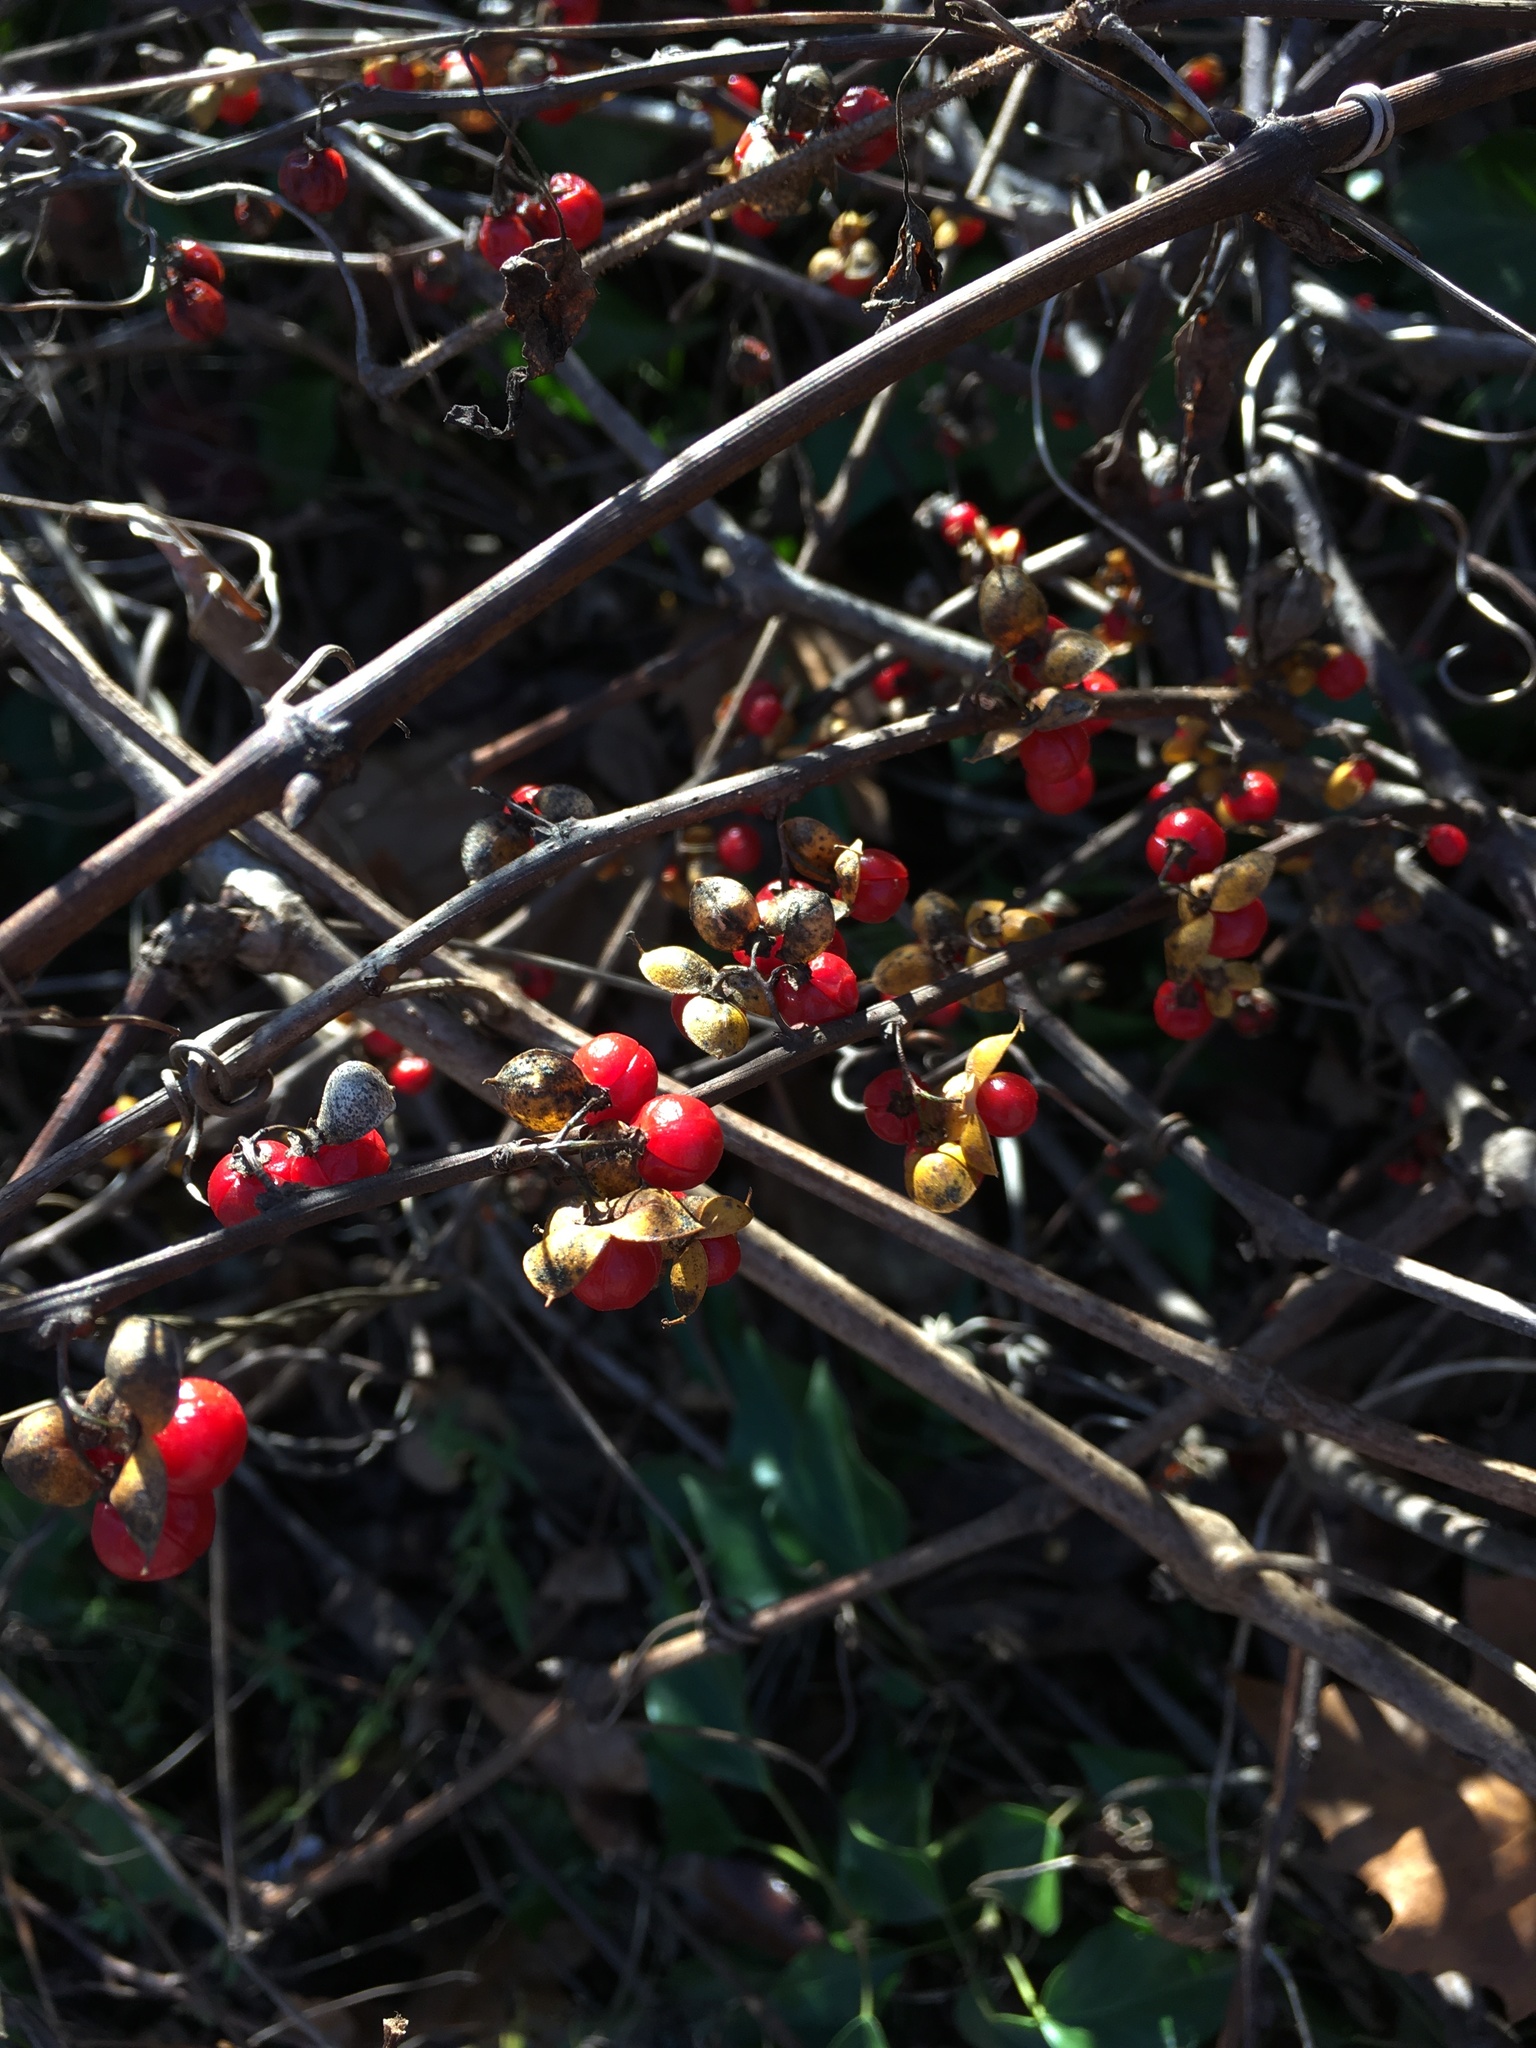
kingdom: Plantae
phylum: Tracheophyta
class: Magnoliopsida
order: Celastrales
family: Celastraceae
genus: Celastrus
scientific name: Celastrus orbiculatus
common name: Oriental bittersweet
